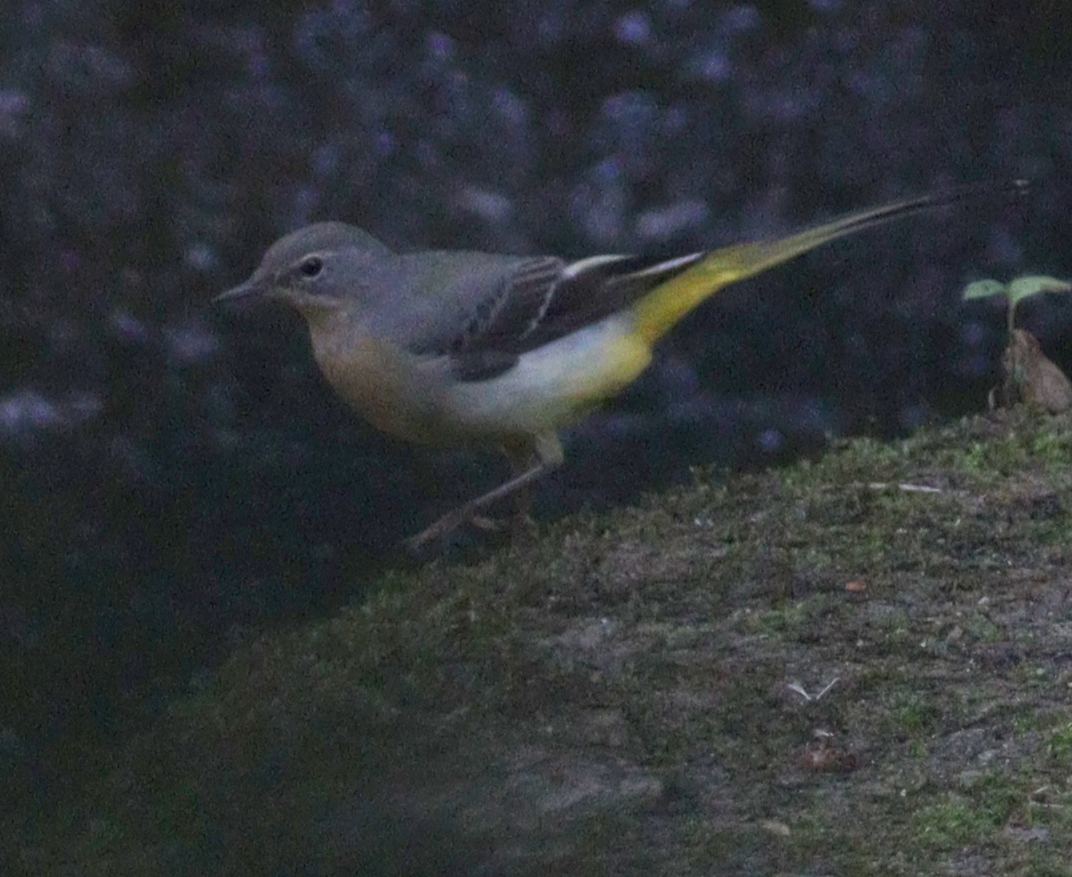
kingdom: Animalia
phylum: Chordata
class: Aves
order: Passeriformes
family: Motacillidae
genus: Motacilla
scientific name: Motacilla cinerea
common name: Grey wagtail
